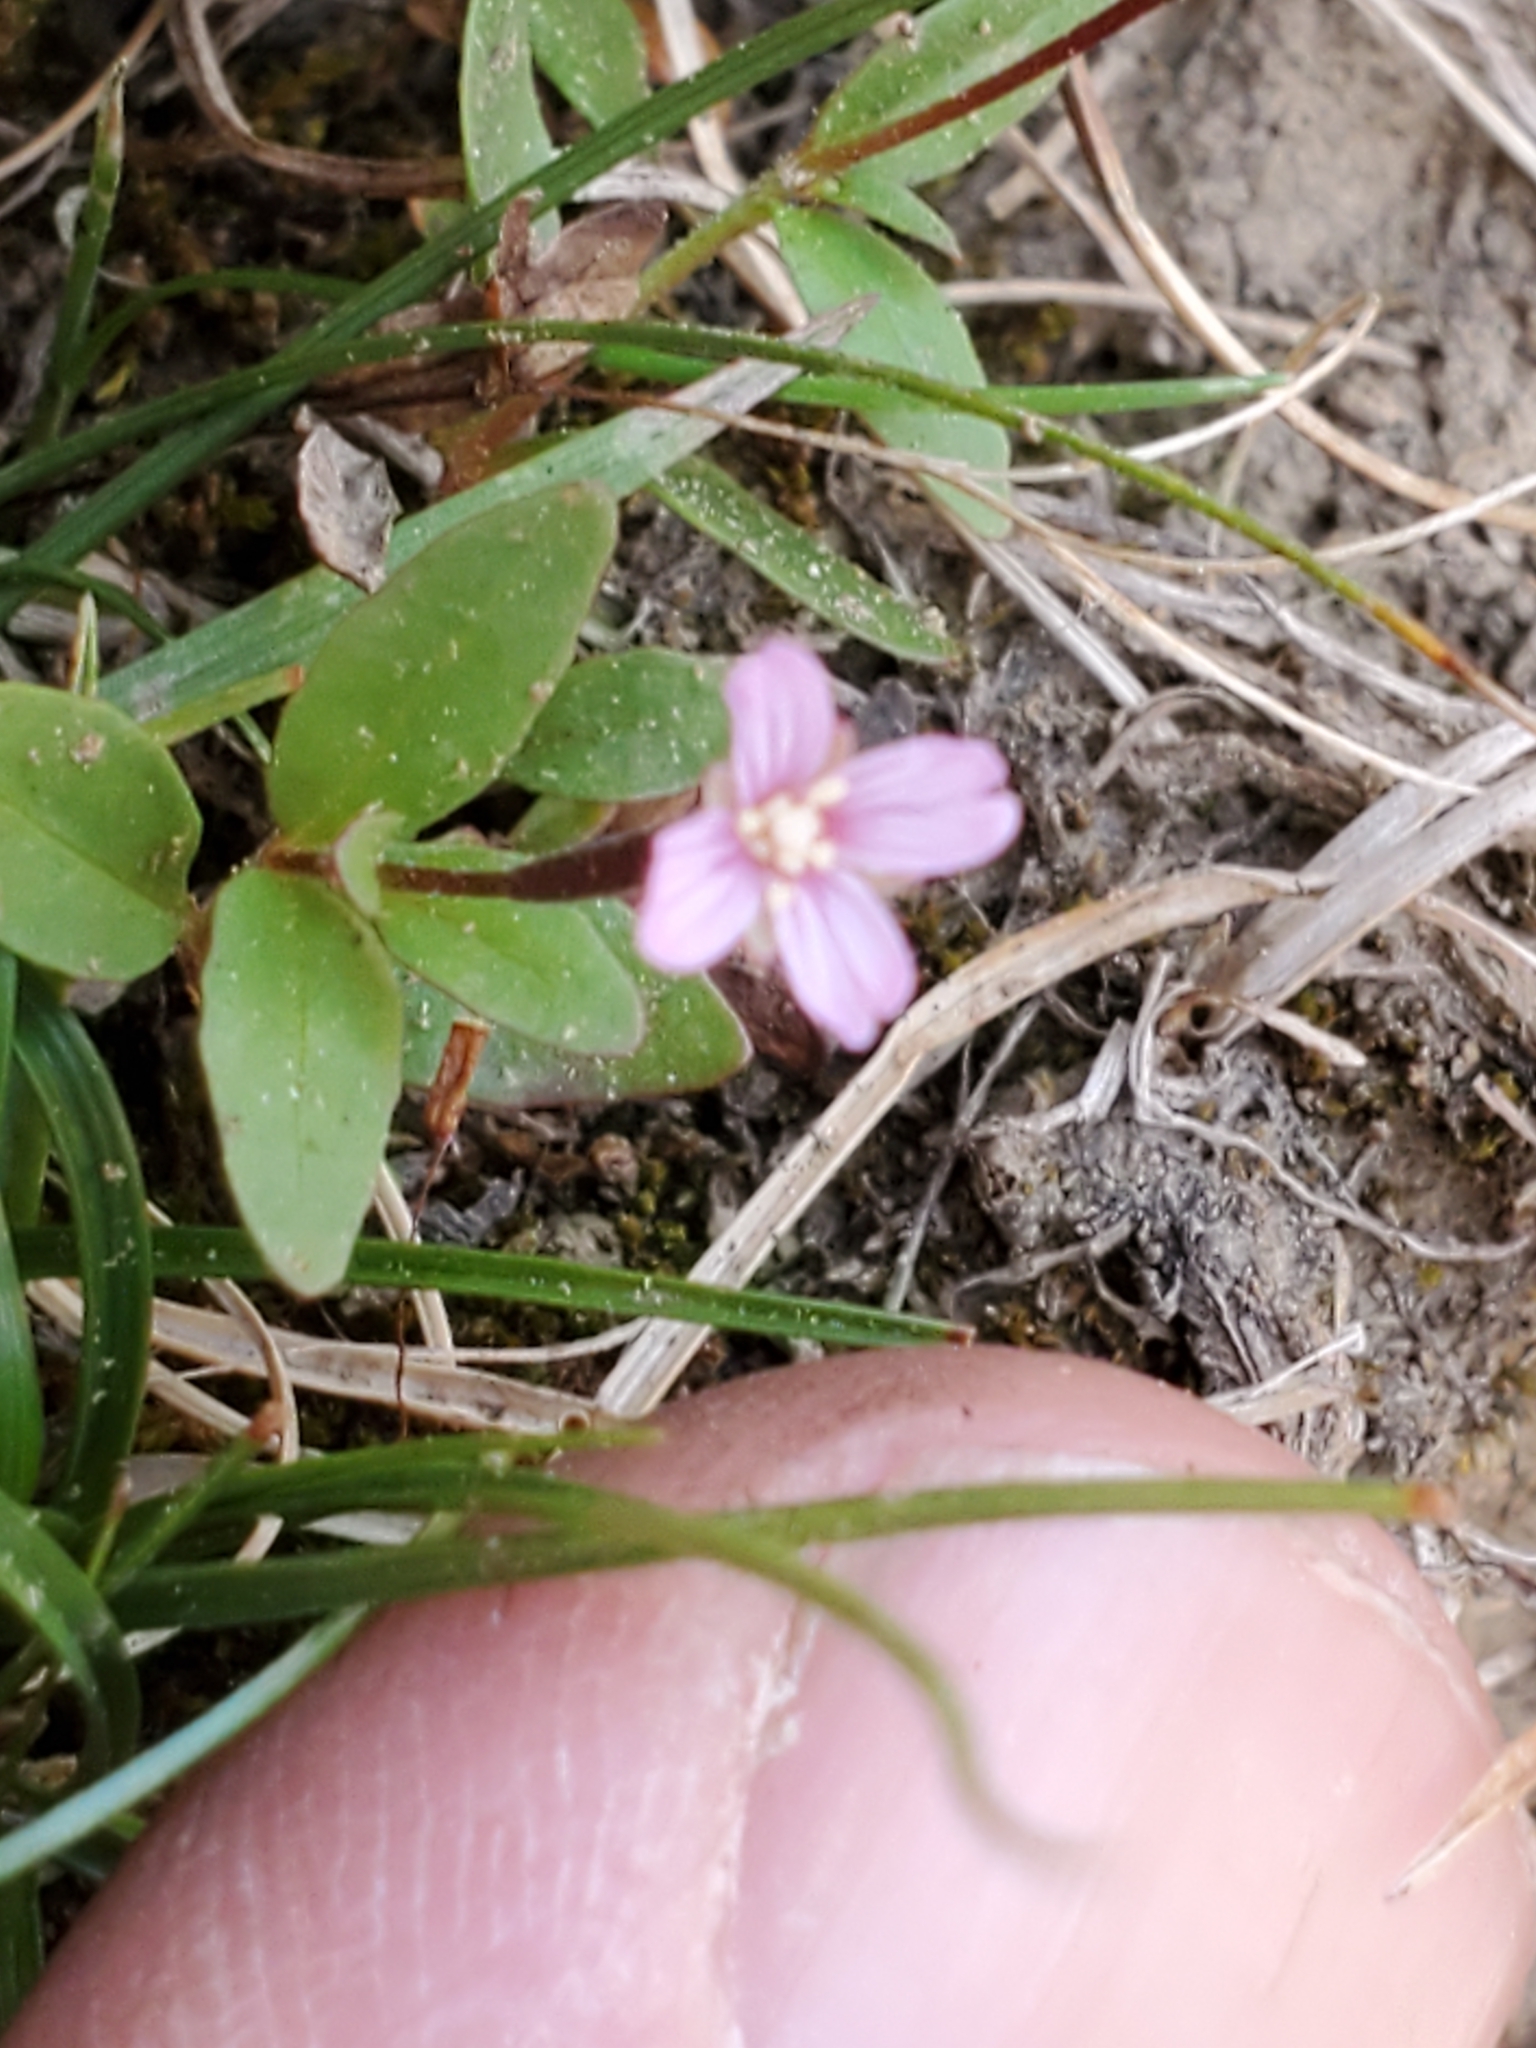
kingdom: Plantae
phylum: Tracheophyta
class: Magnoliopsida
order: Myrtales
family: Onagraceae
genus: Epilobium
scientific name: Epilobium anagallidifolium
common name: Alpine willowherb
